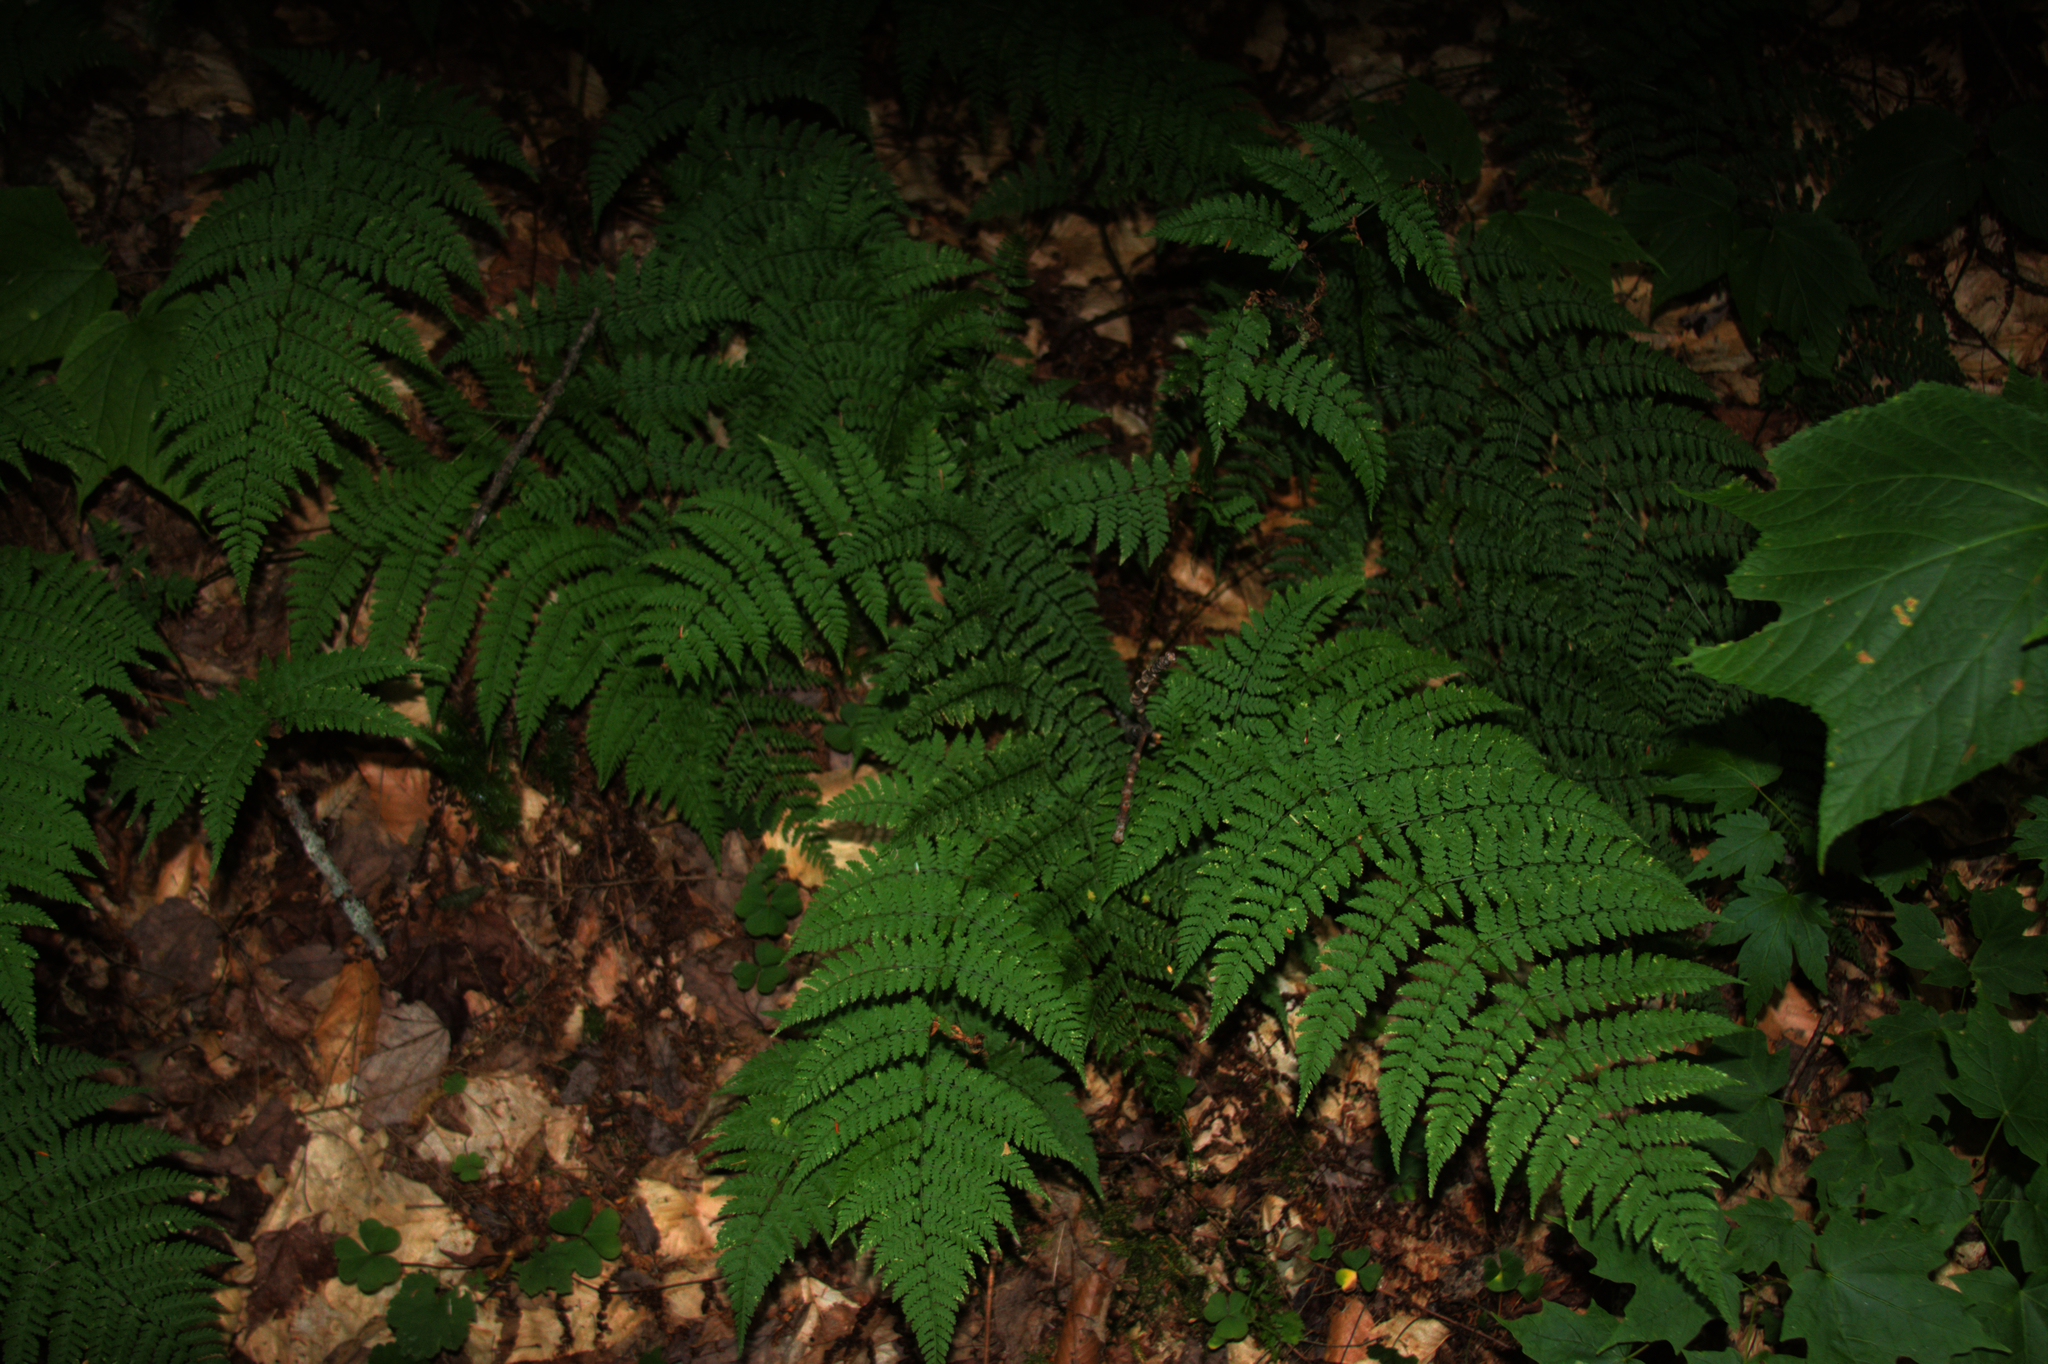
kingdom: Plantae
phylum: Tracheophyta
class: Polypodiopsida
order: Polypodiales
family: Dryopteridaceae
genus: Dryopteris
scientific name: Dryopteris intermedia
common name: Evergreen wood fern
